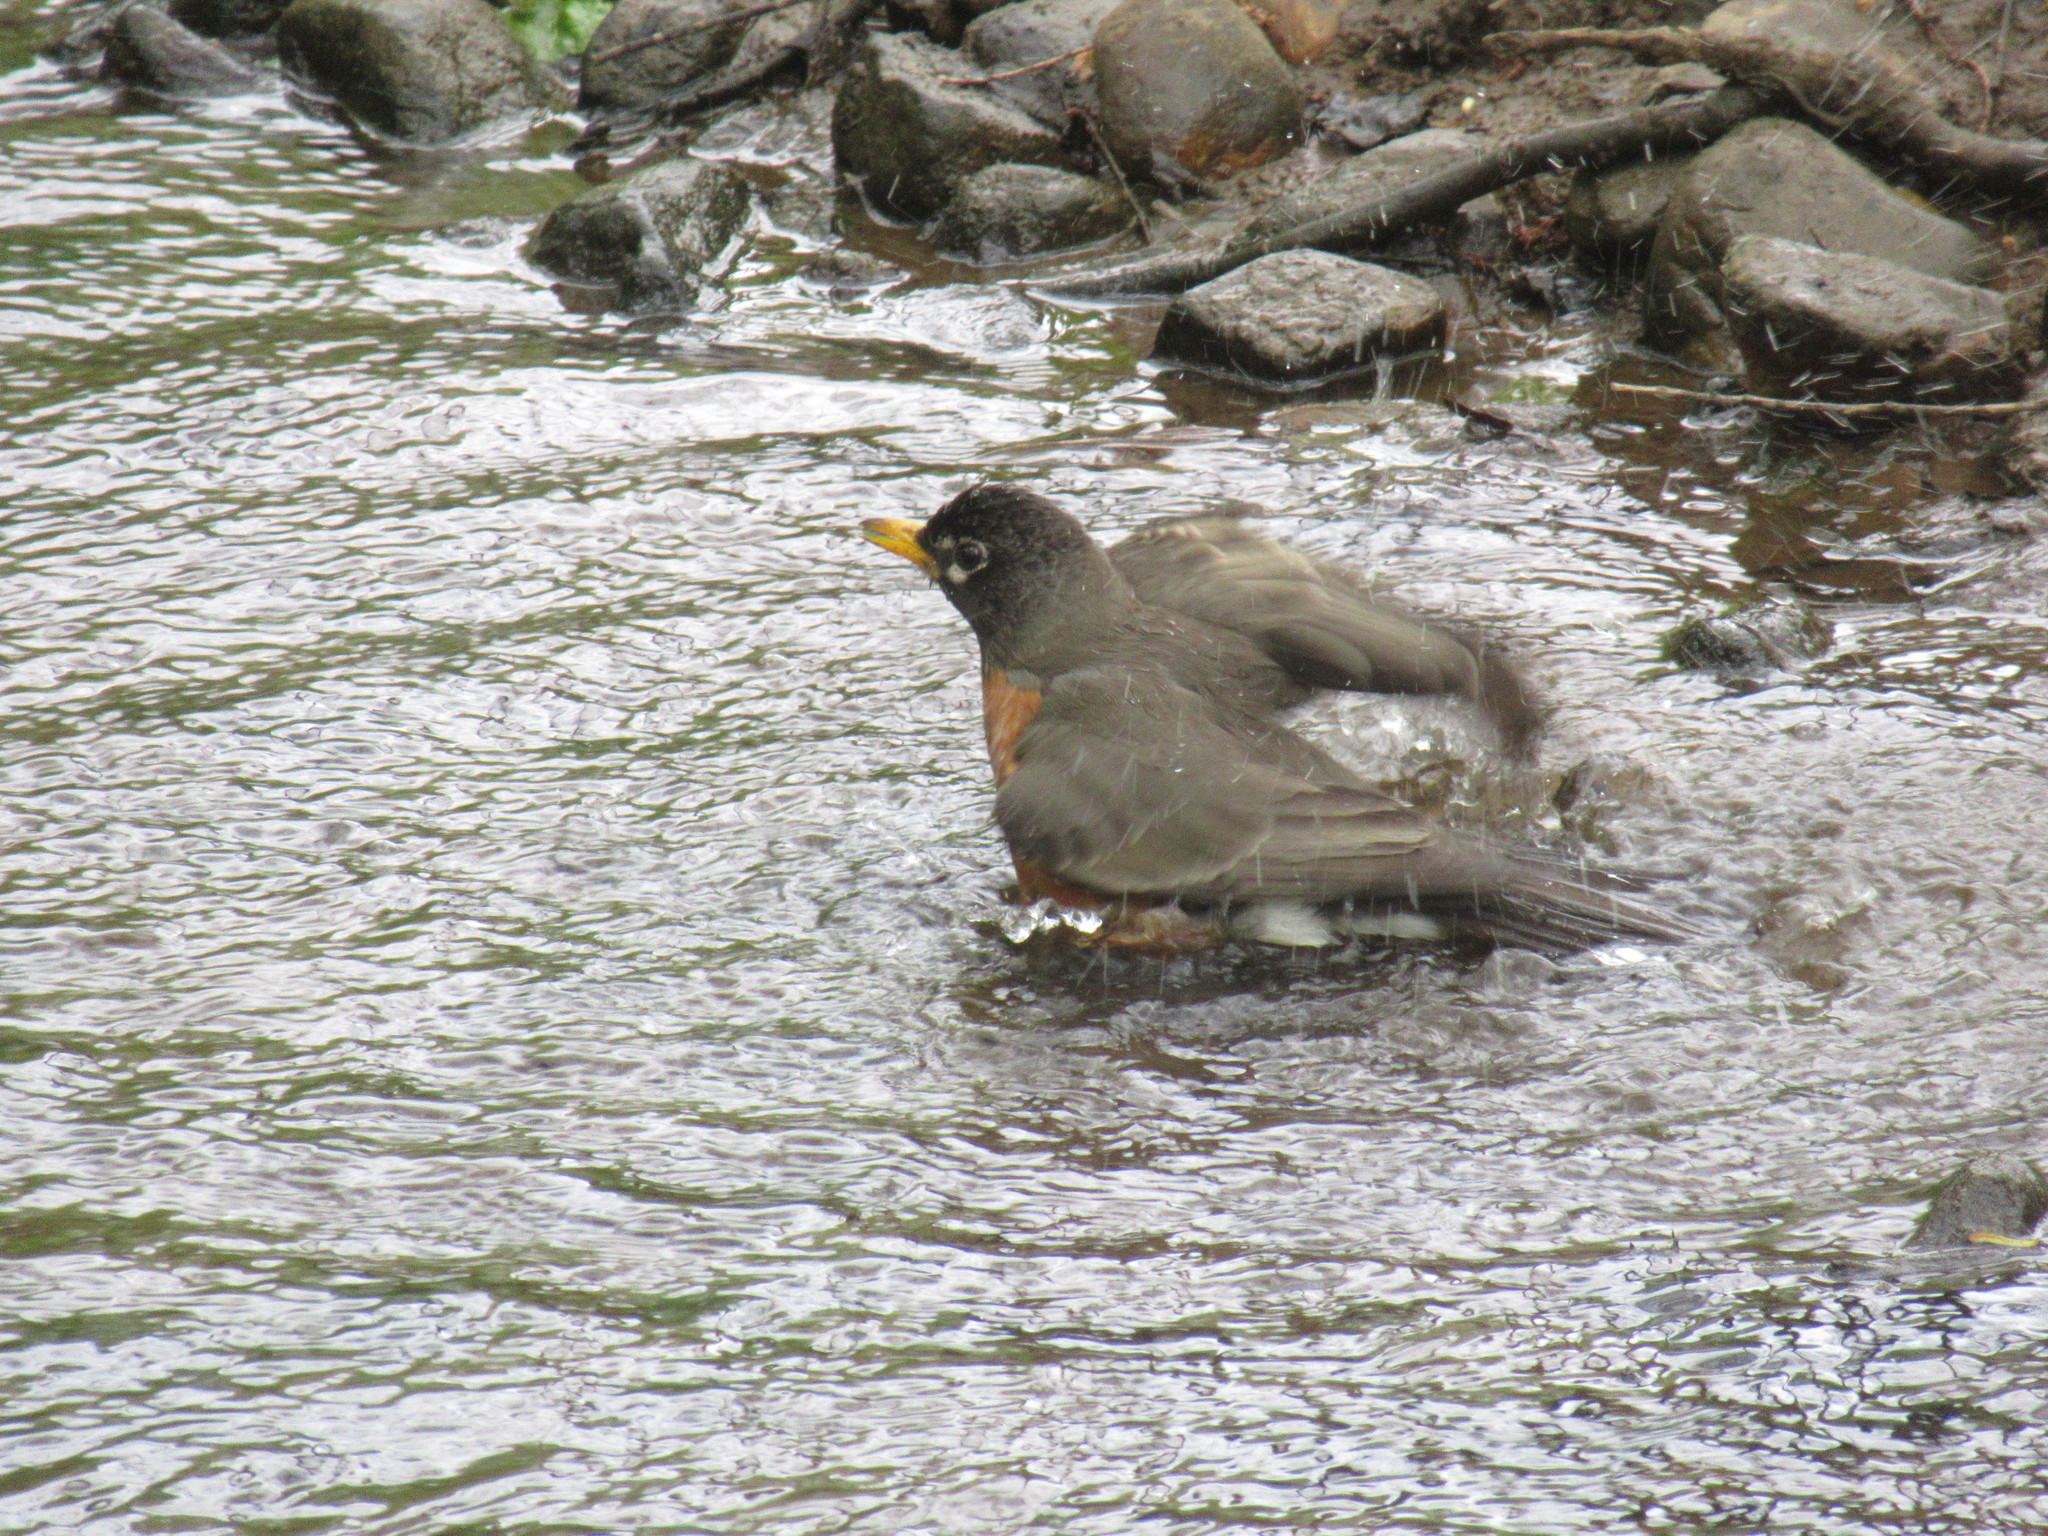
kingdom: Animalia
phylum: Chordata
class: Aves
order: Passeriformes
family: Turdidae
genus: Turdus
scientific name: Turdus migratorius
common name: American robin
